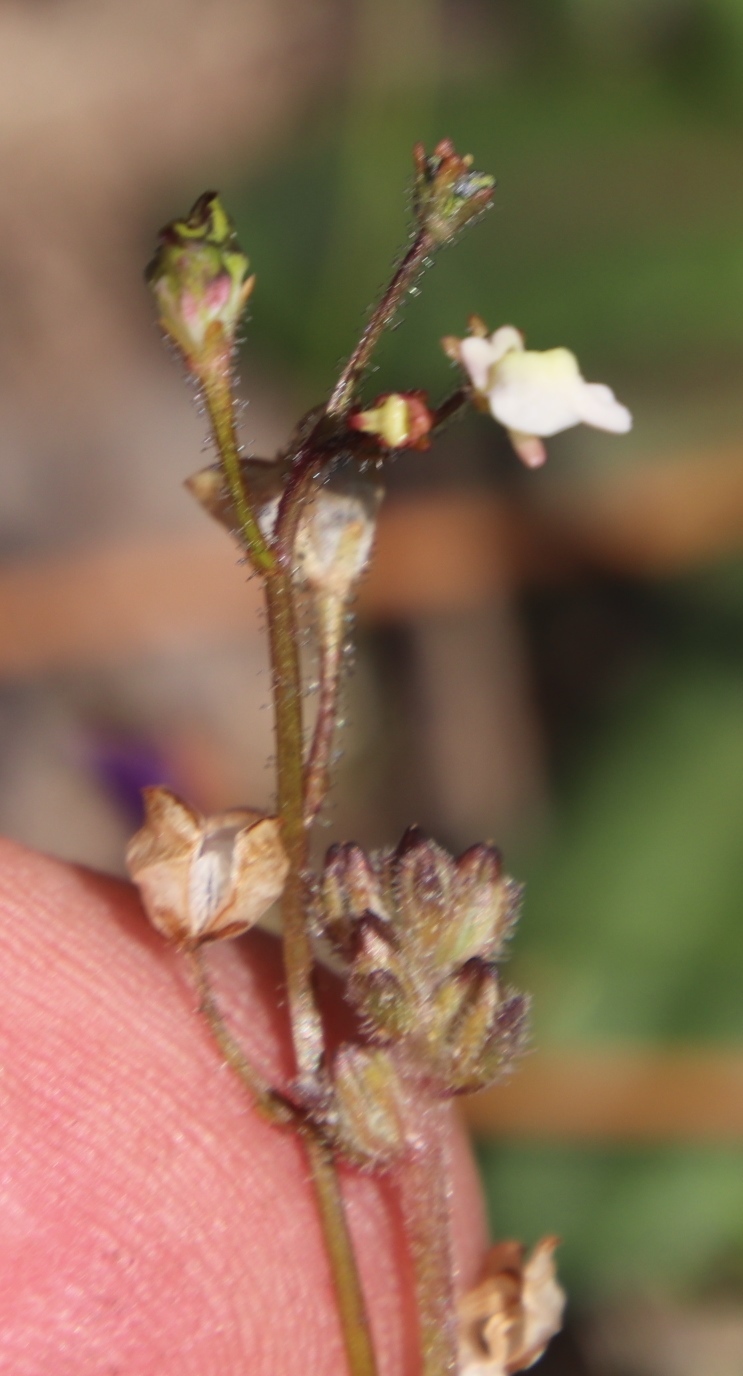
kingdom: Plantae
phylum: Tracheophyta
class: Magnoliopsida
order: Lamiales
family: Scrophulariaceae
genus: Nemesia
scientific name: Nemesia pinnata
